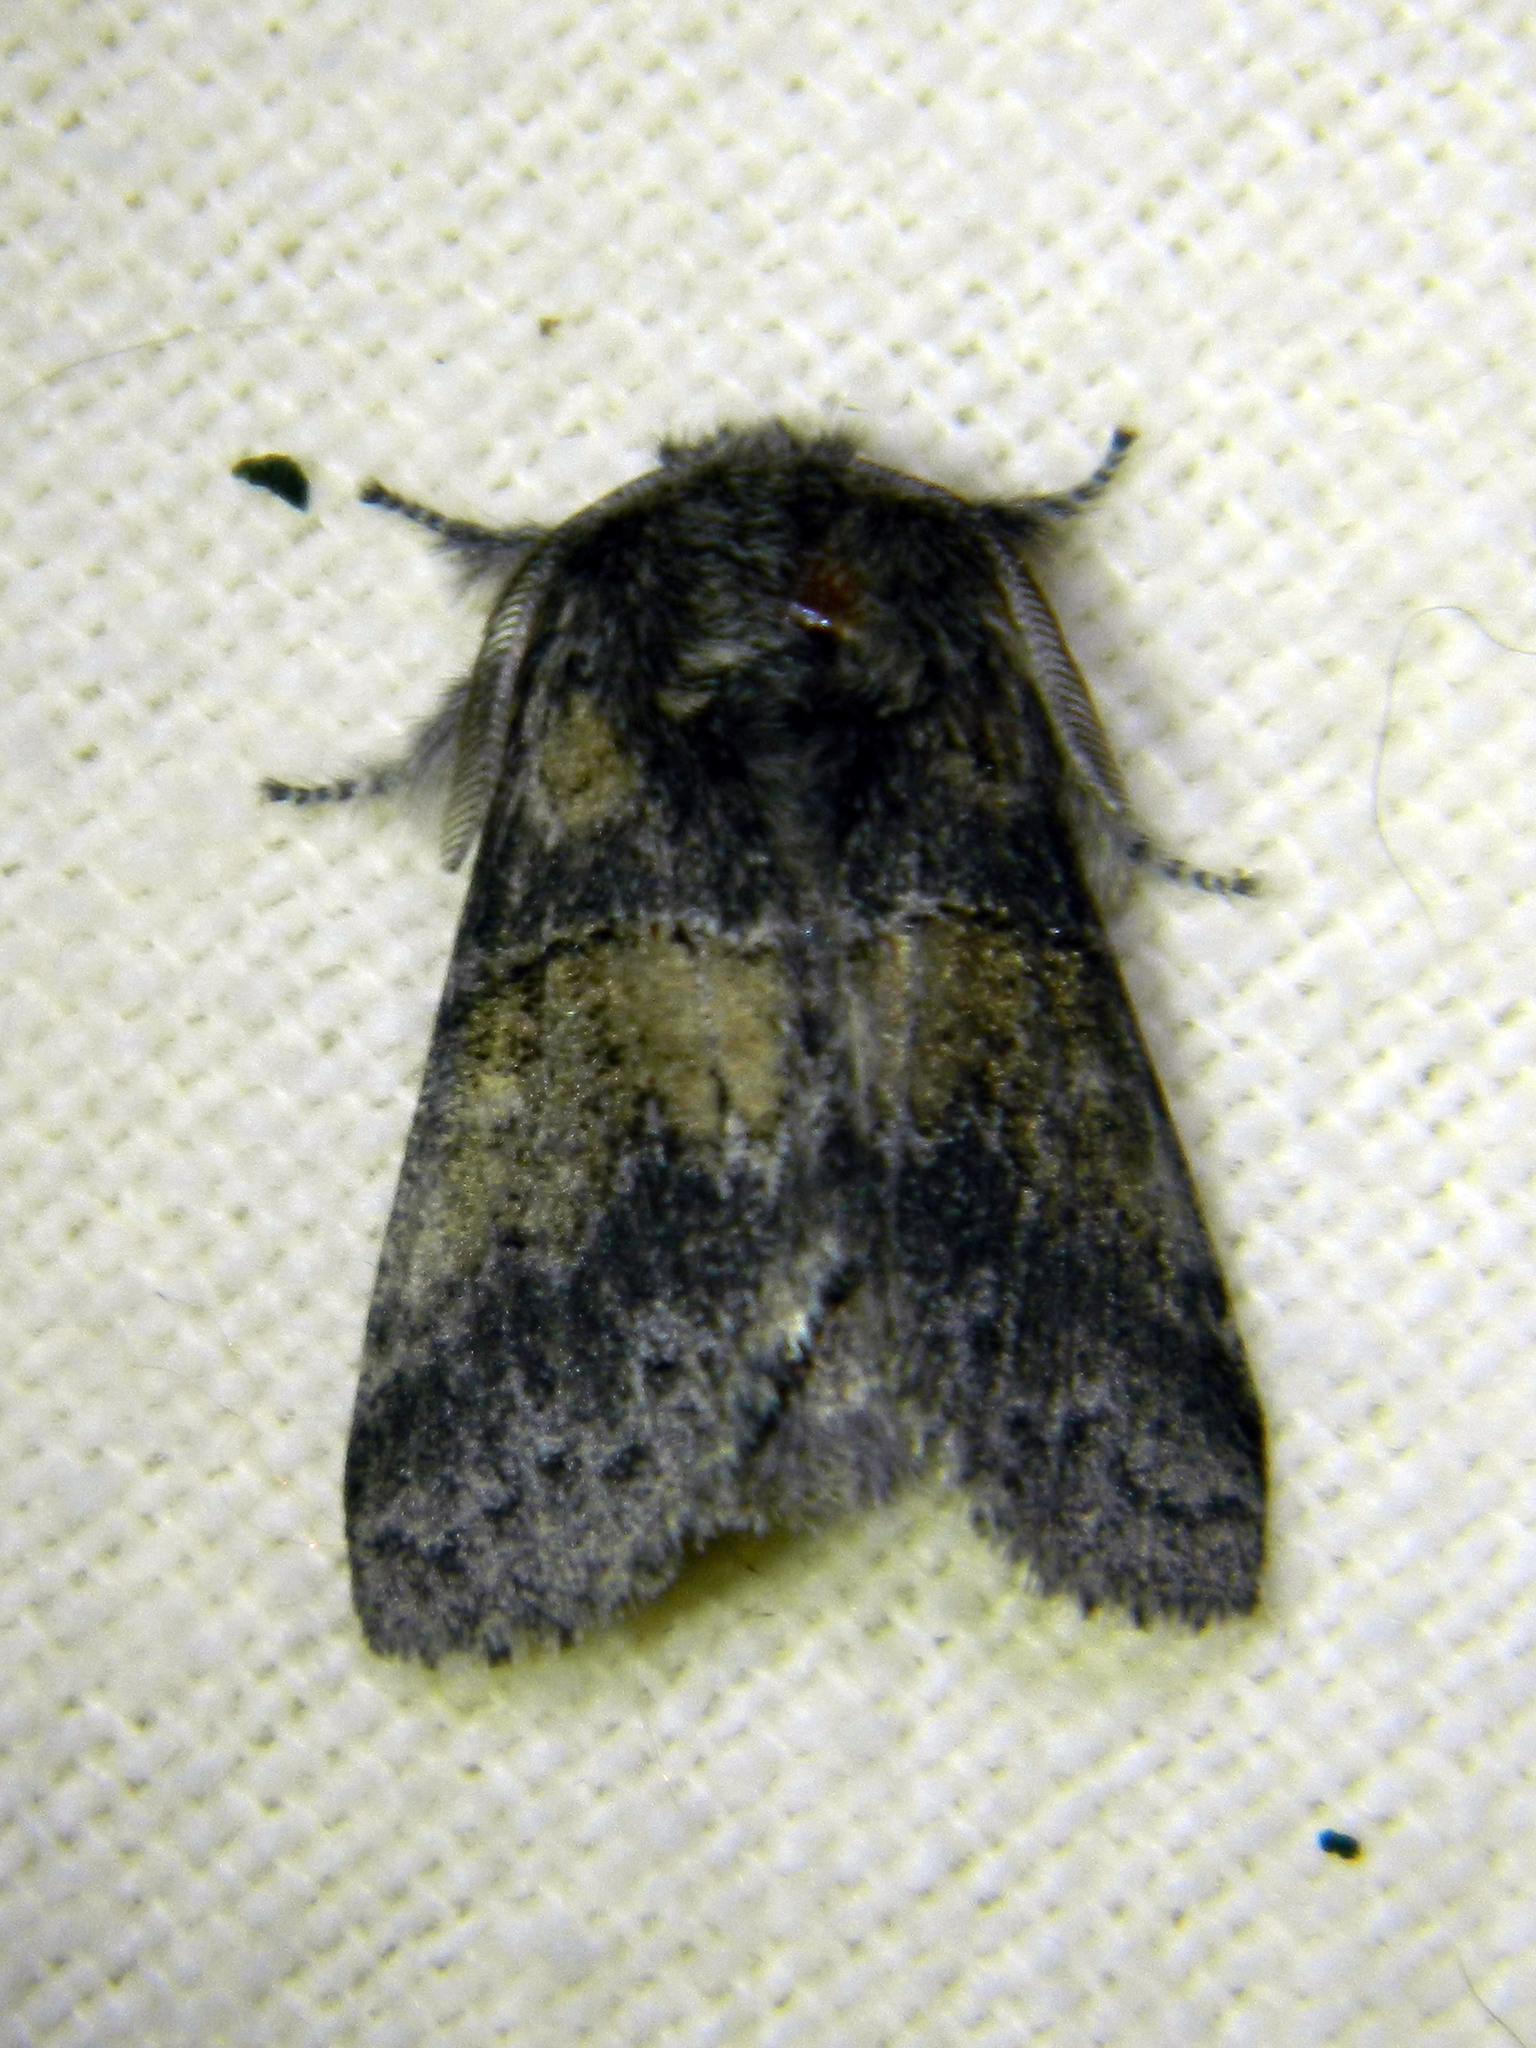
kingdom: Animalia
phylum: Arthropoda
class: Insecta
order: Lepidoptera
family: Notodontidae
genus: Gluphisia
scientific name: Gluphisia septentrionis
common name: Common gluphisia
